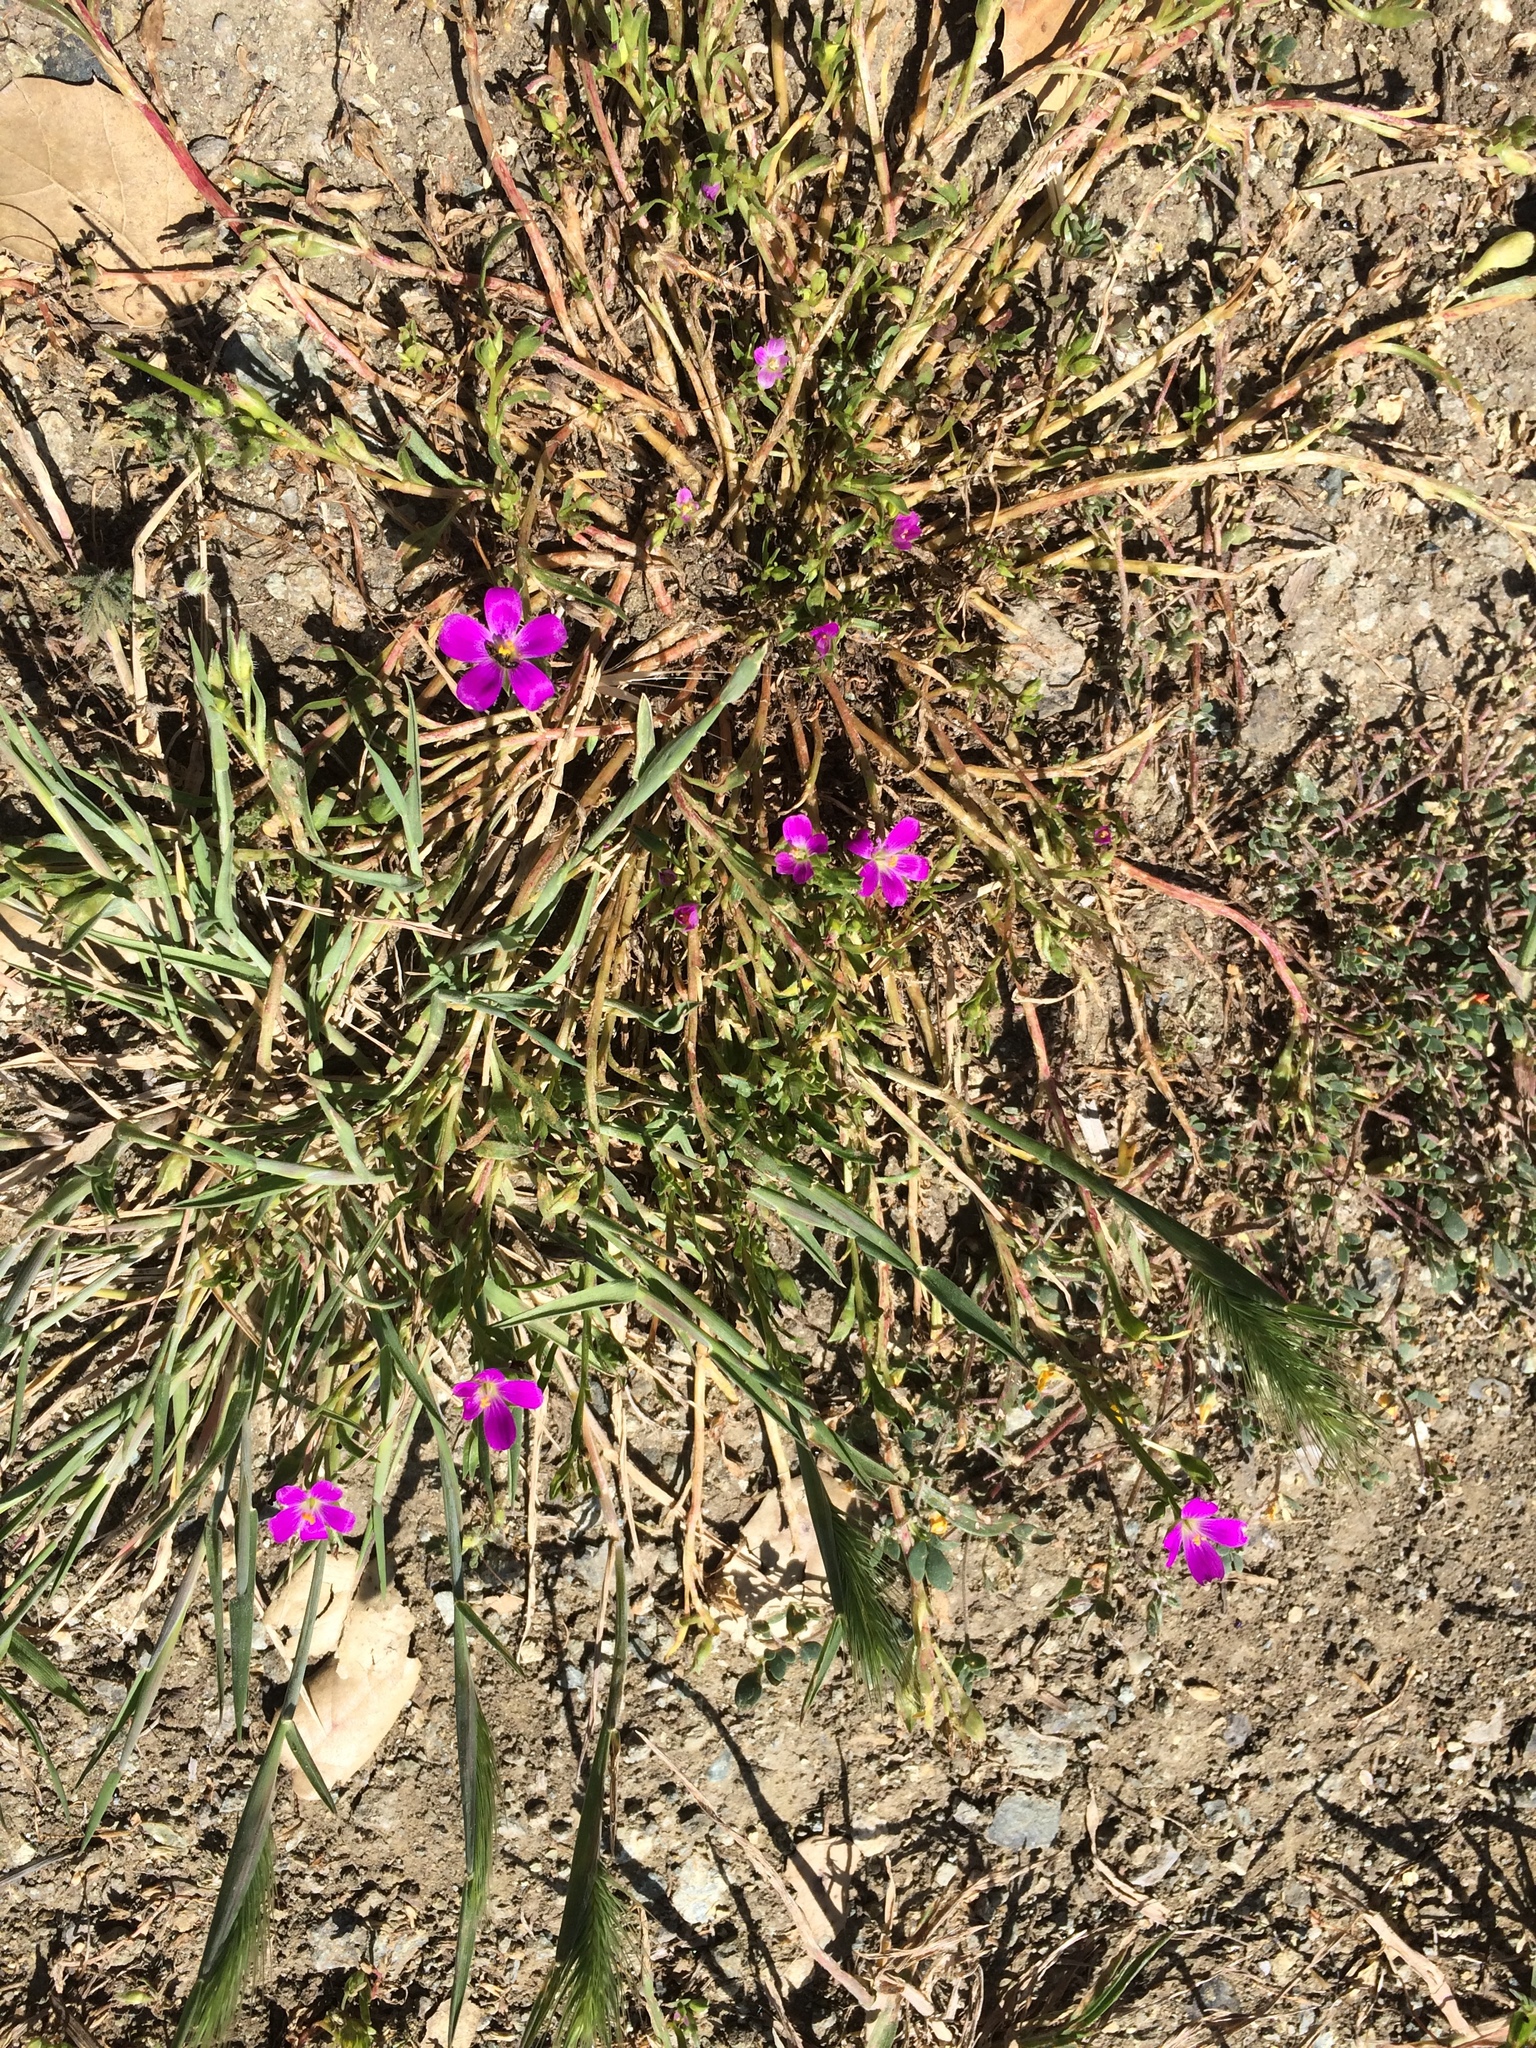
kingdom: Plantae
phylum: Tracheophyta
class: Magnoliopsida
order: Caryophyllales
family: Montiaceae
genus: Calandrinia
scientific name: Calandrinia menziesii
